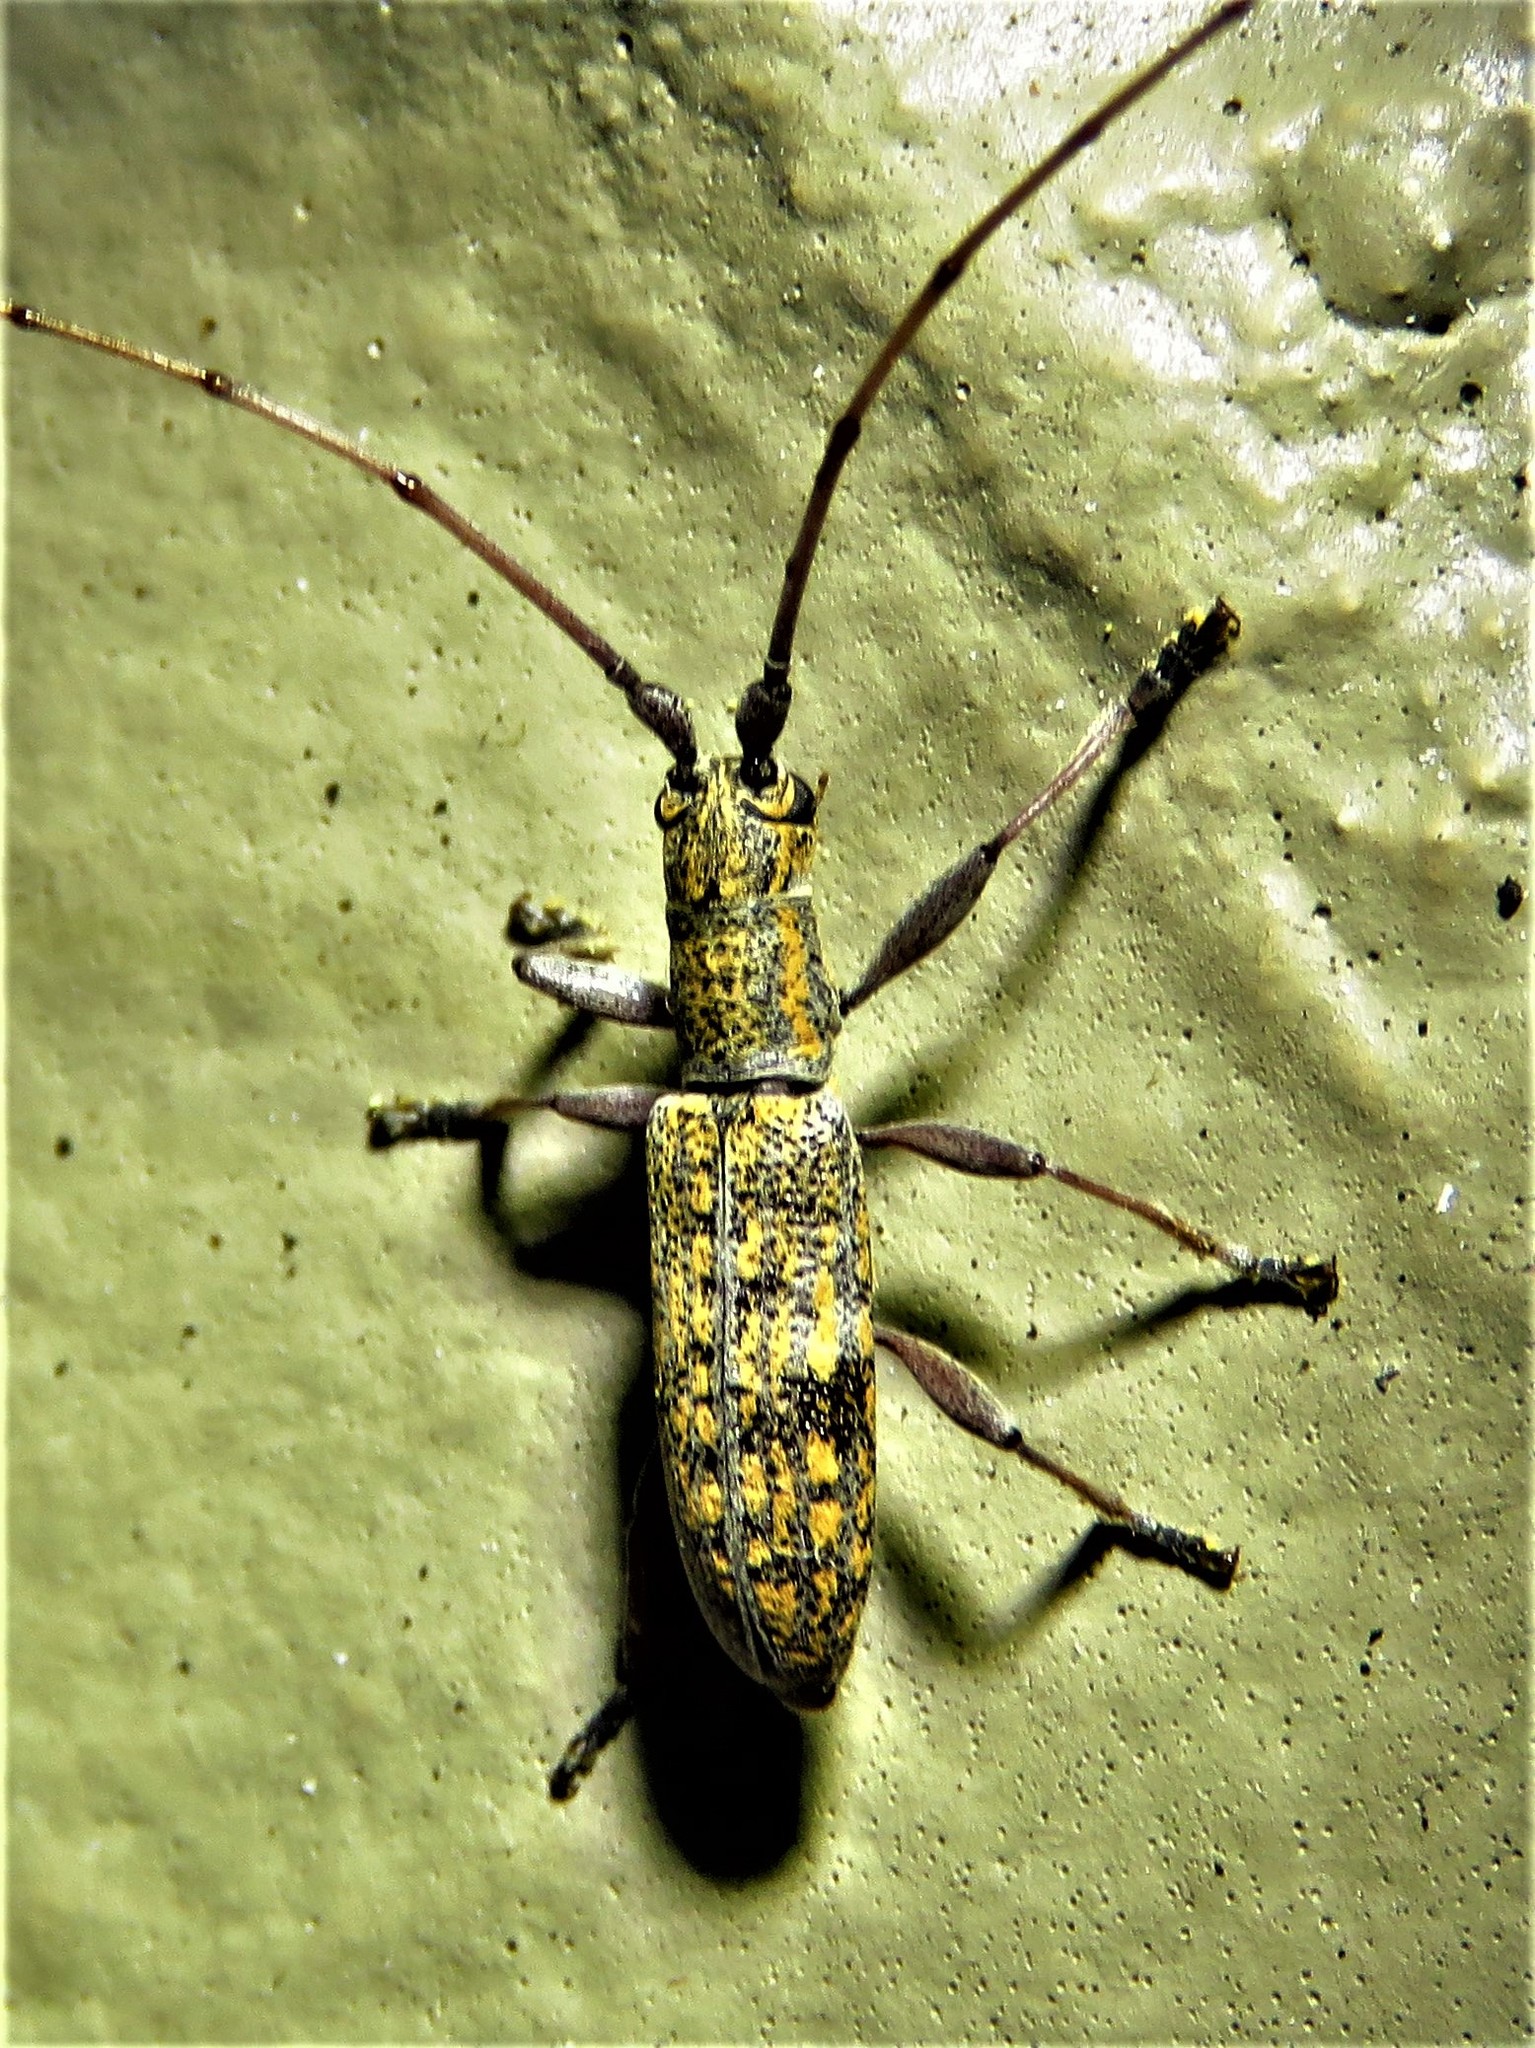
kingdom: Animalia
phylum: Arthropoda
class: Insecta
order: Coleoptera
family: Cerambycidae
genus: Dorcaschema
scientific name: Dorcaschema alternatum
